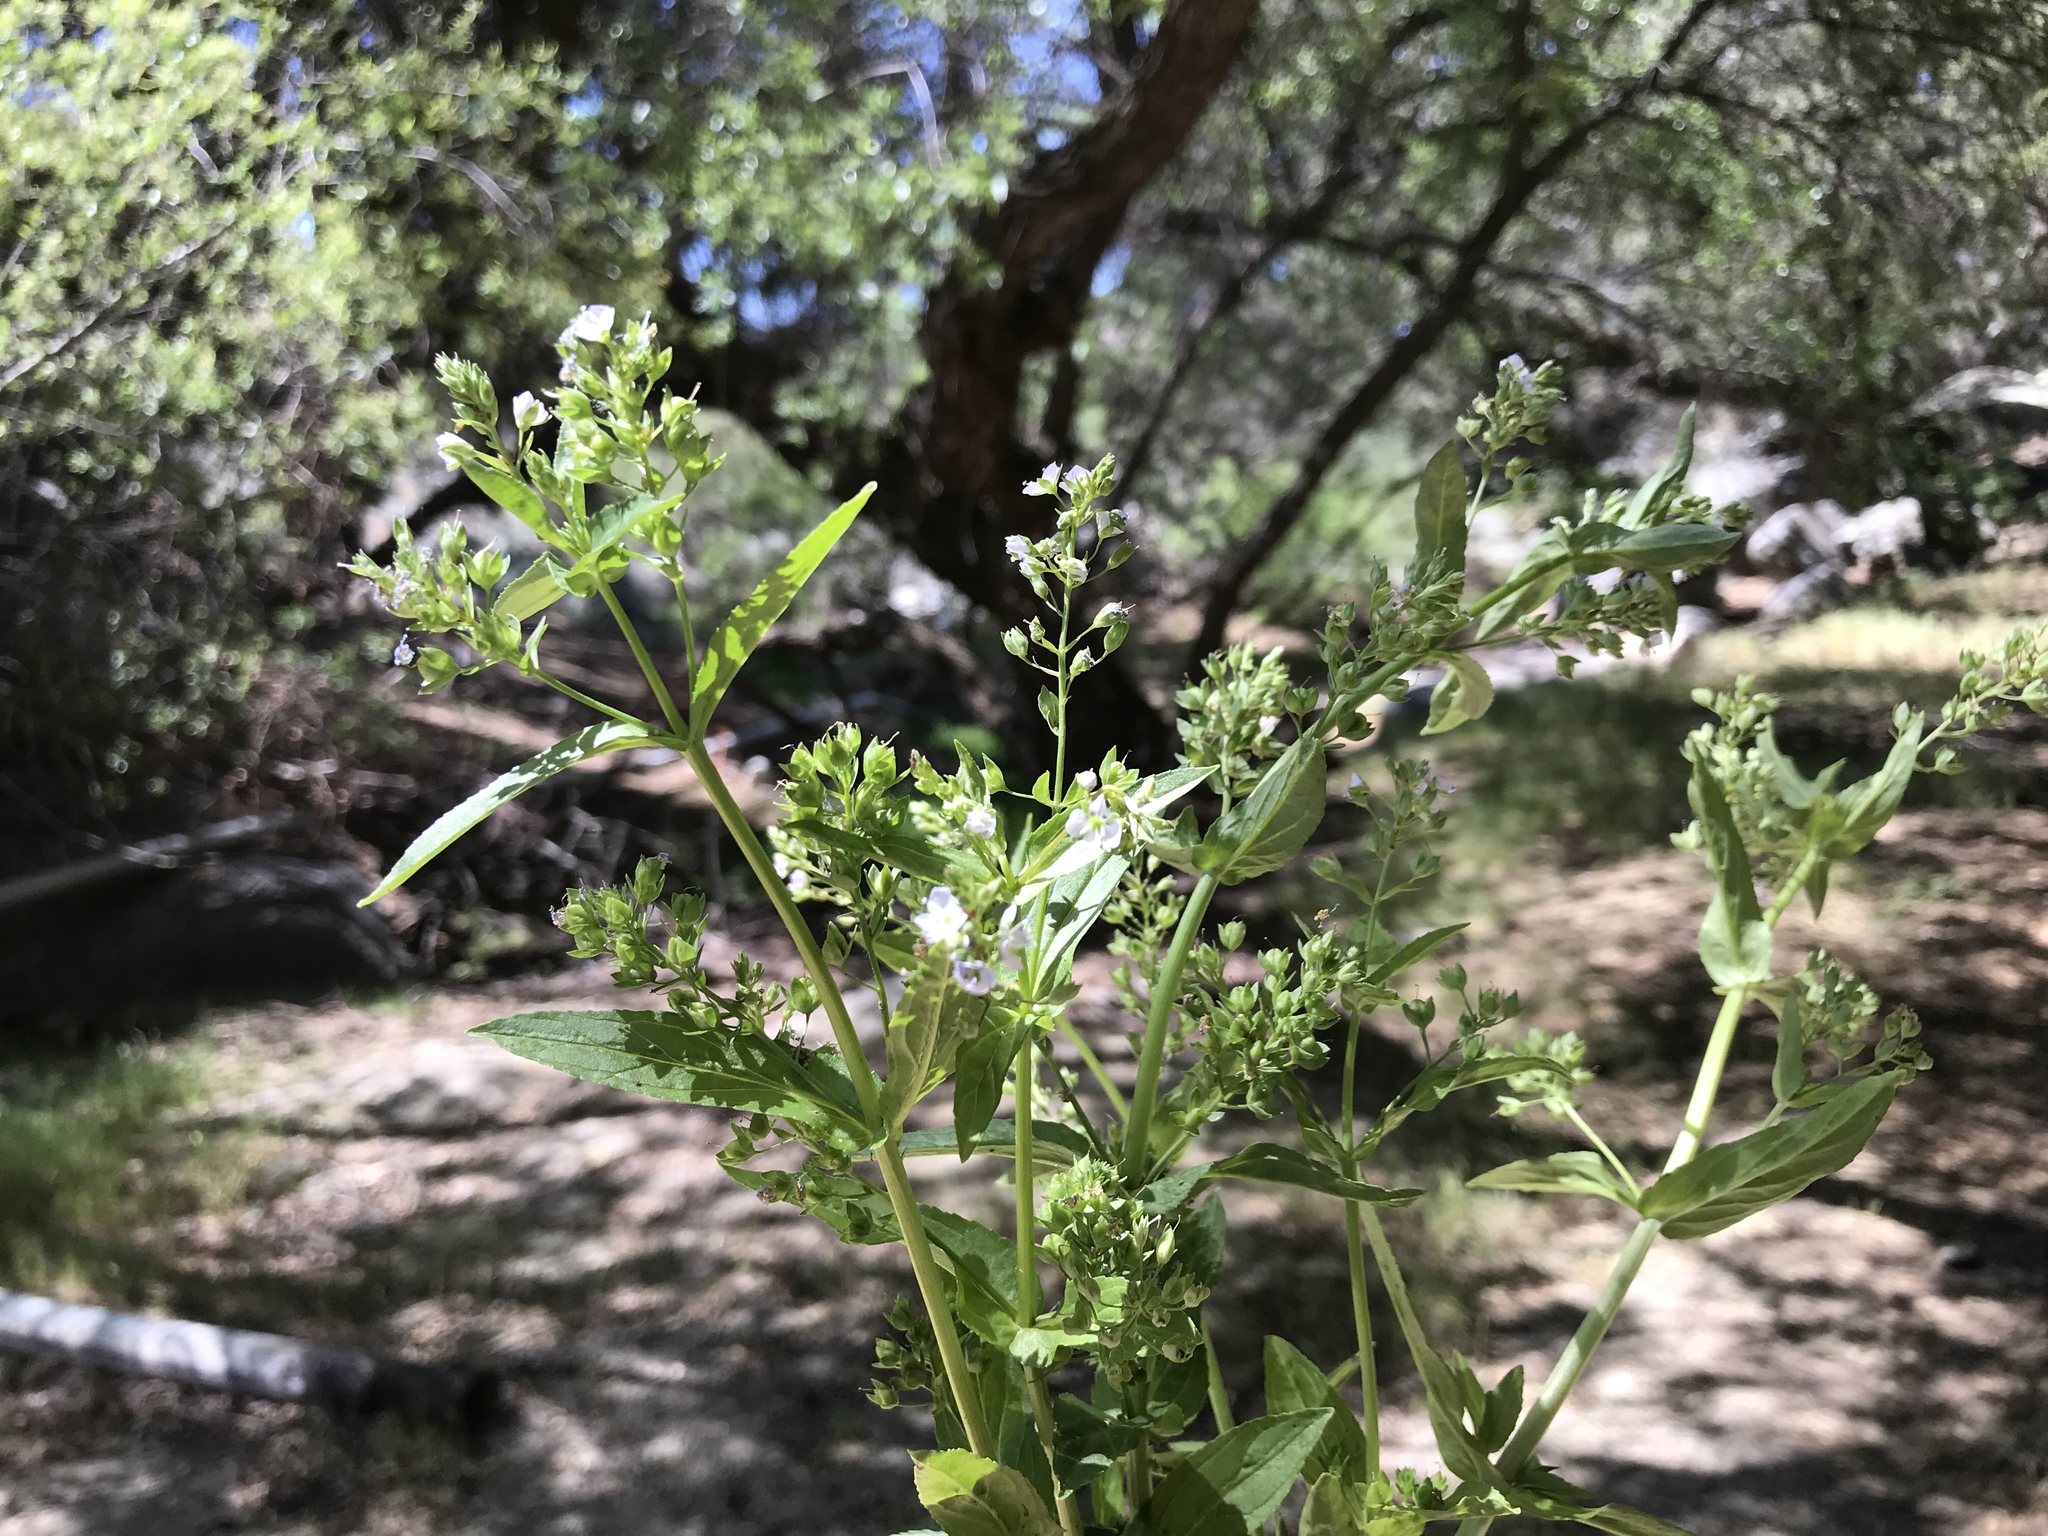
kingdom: Plantae
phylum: Tracheophyta
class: Magnoliopsida
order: Lamiales
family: Plantaginaceae
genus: Veronica
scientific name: Veronica anagallis-aquatica
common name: Water speedwell
